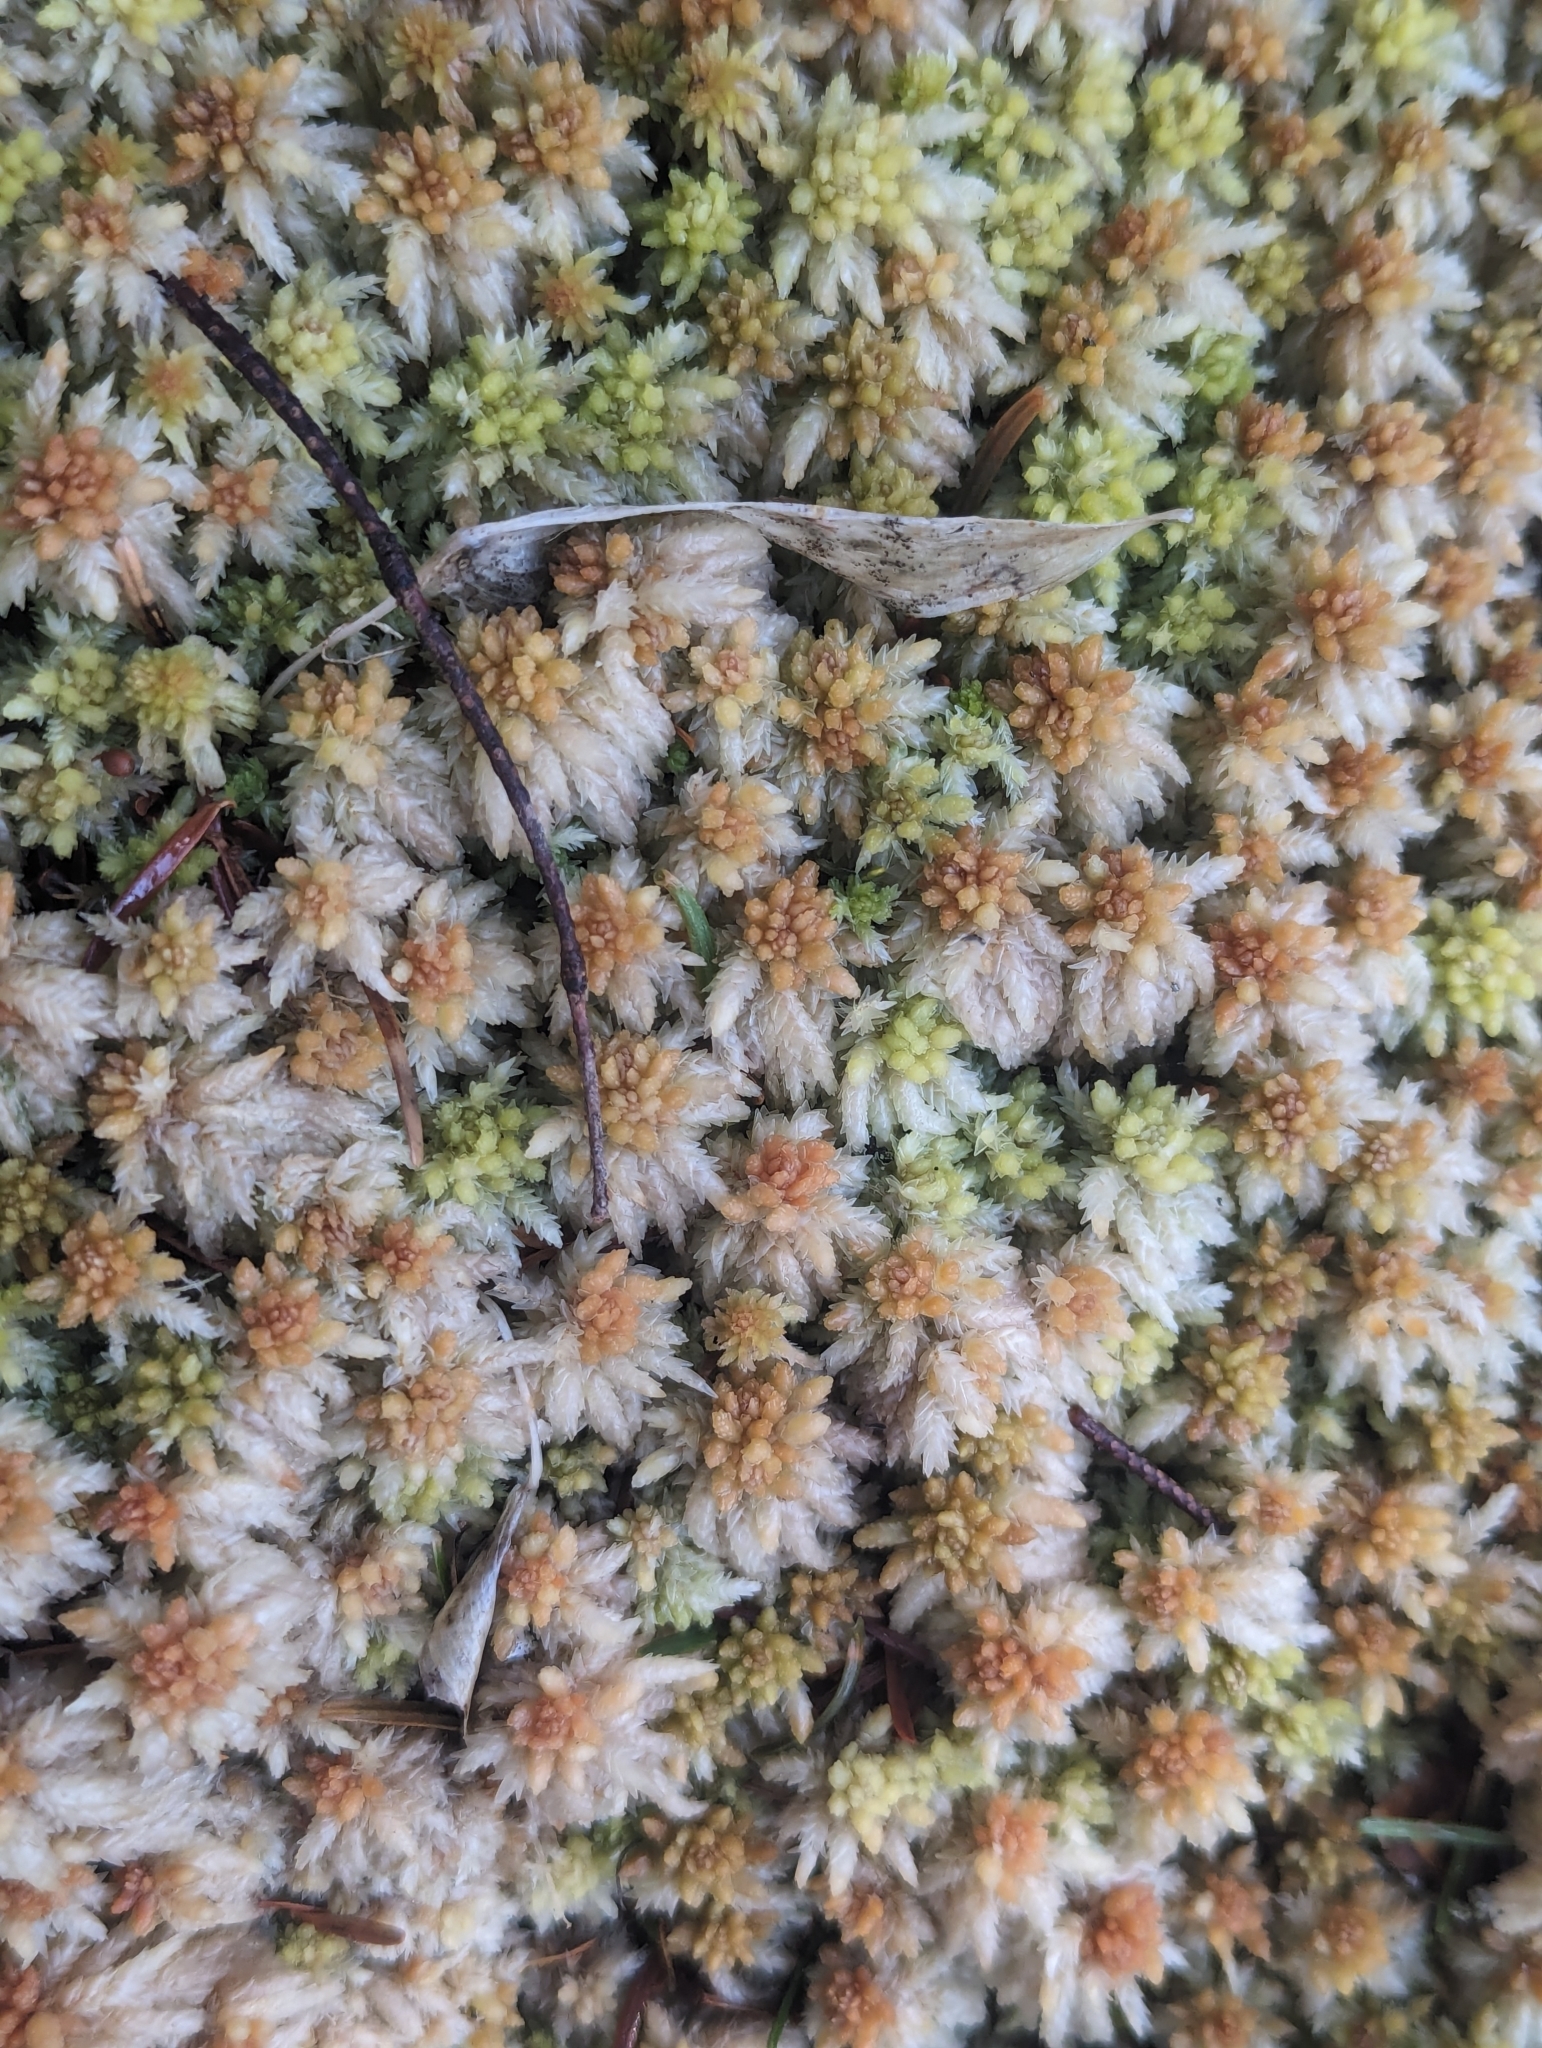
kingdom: Plantae
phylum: Bryophyta
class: Sphagnopsida
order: Sphagnales
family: Sphagnaceae
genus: Sphagnum
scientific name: Sphagnum palustre
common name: Blunt-leaved bog-moss
